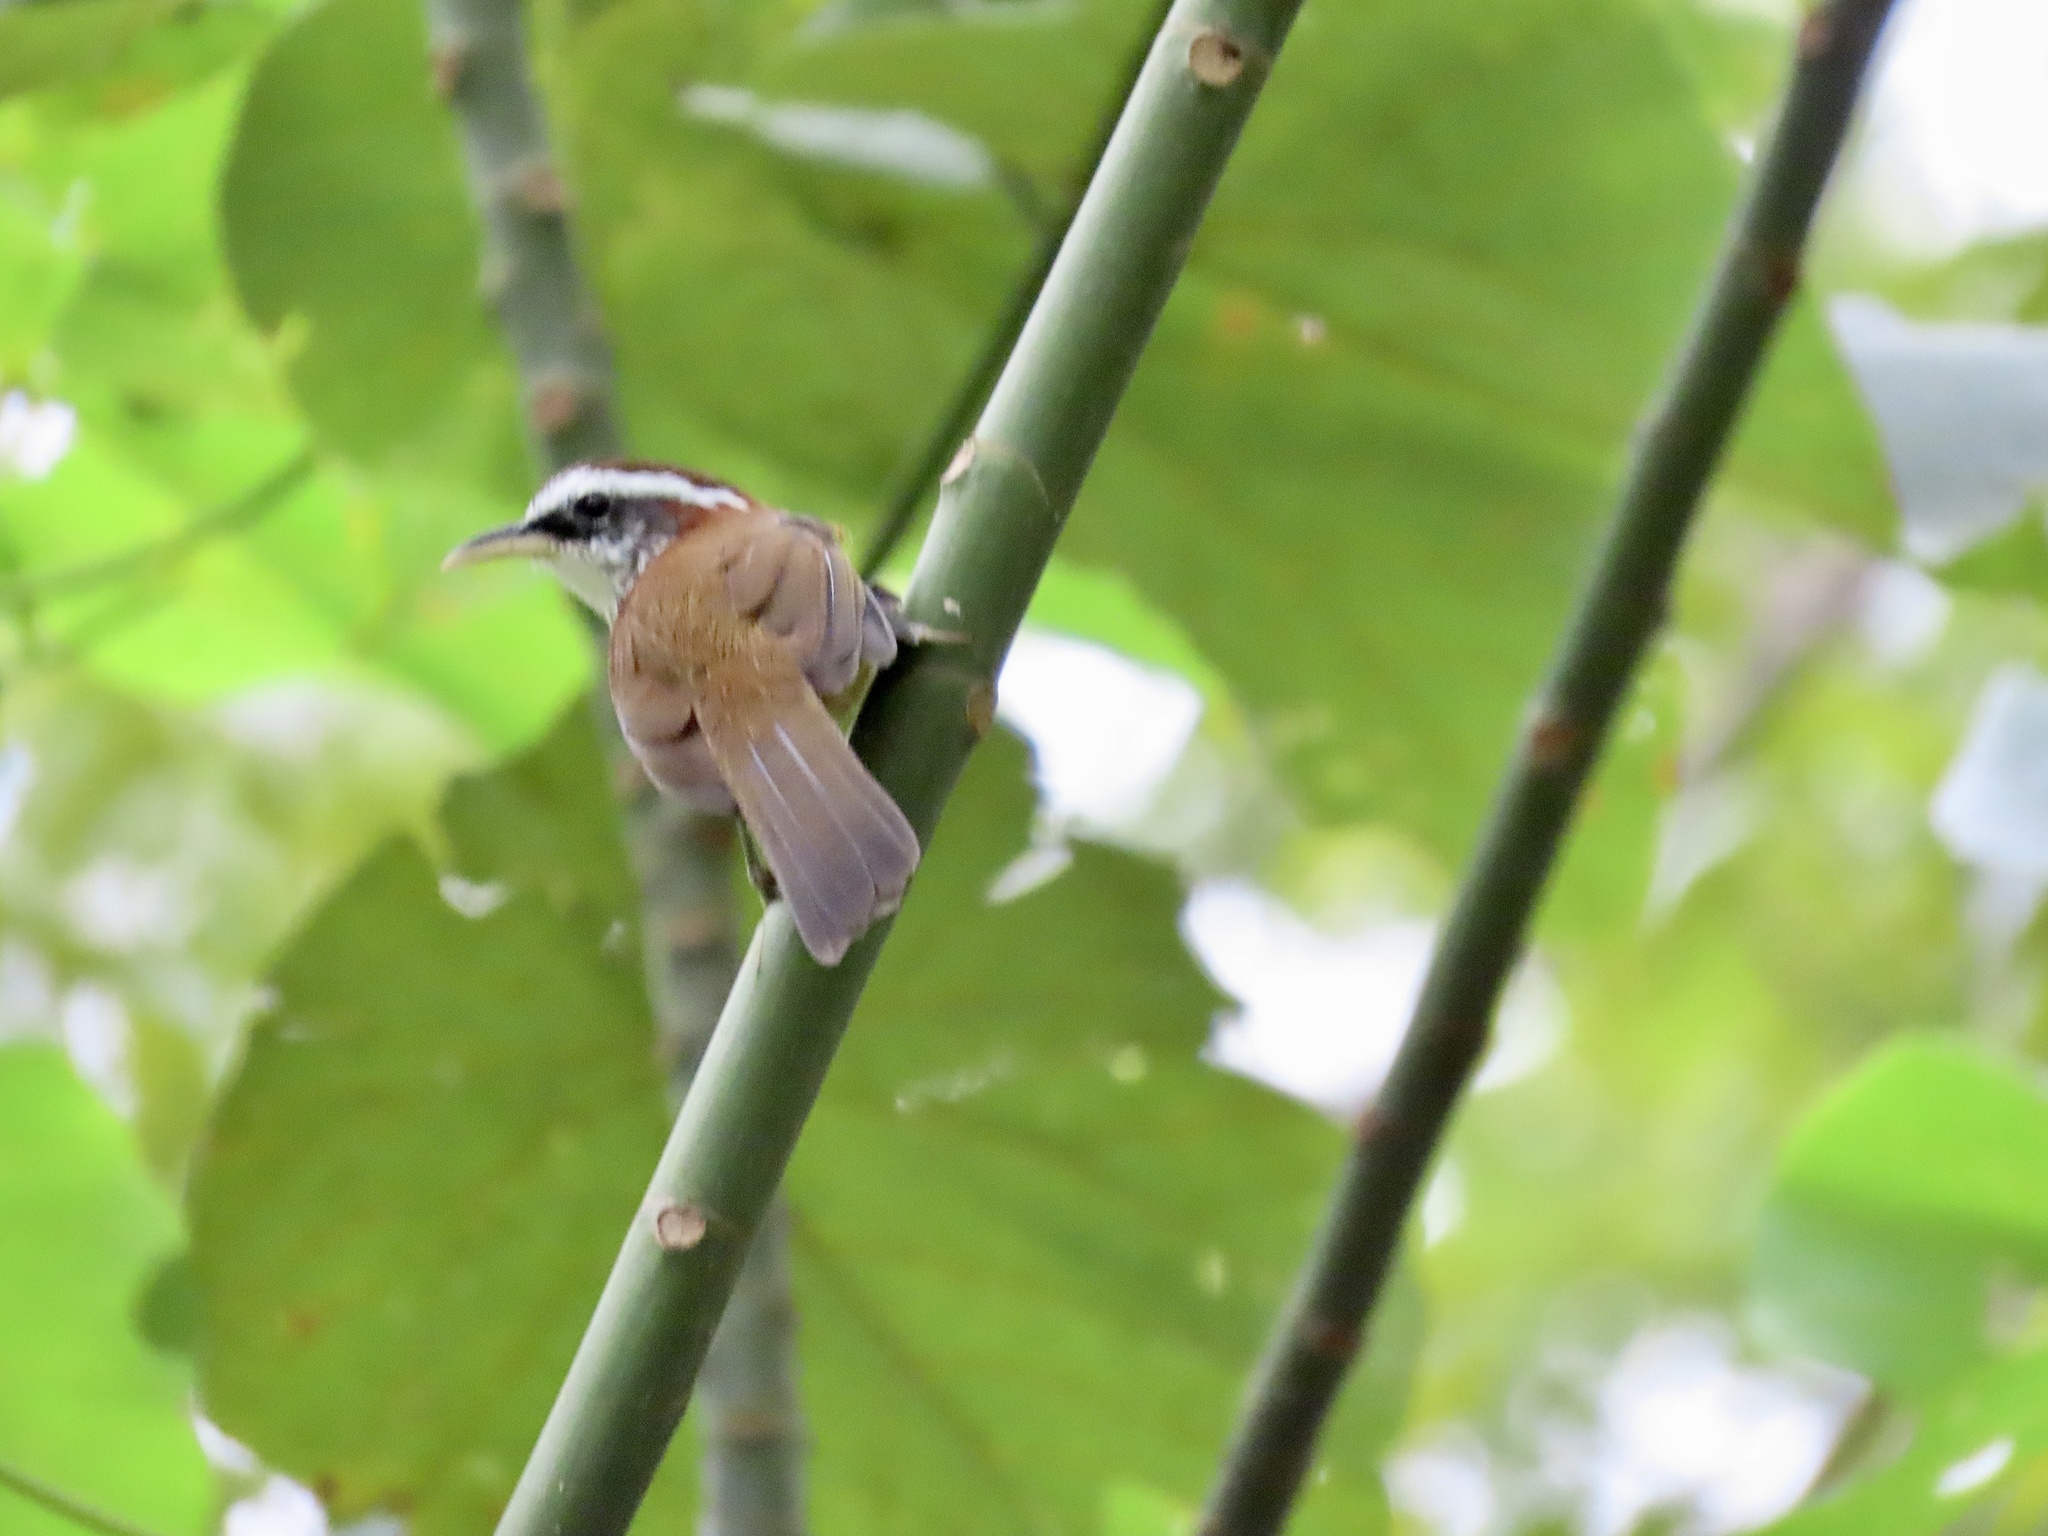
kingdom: Animalia
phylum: Chordata
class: Aves
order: Passeriformes
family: Timaliidae
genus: Pomatorhinus
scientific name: Pomatorhinus ruficollis
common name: Streak-breasted scimitar babbler
